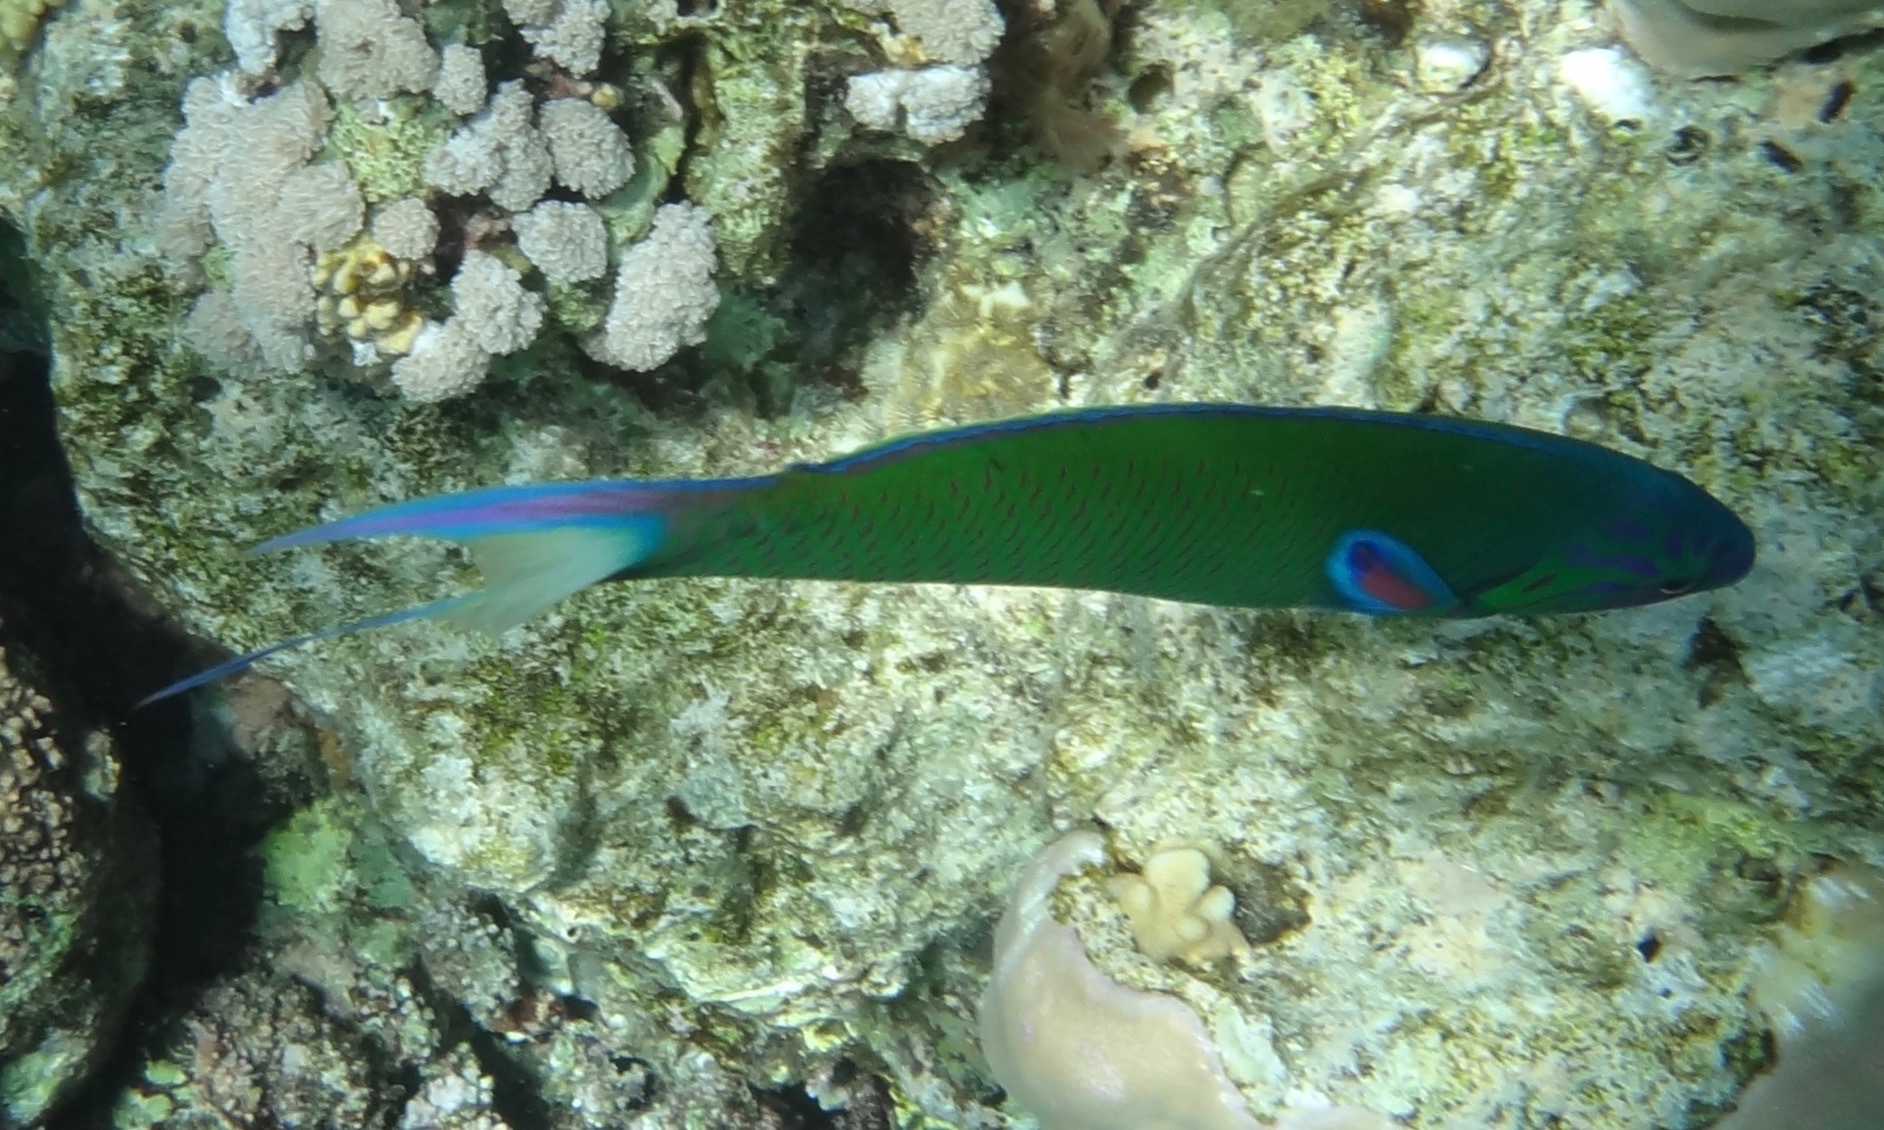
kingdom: Animalia
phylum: Chordata
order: Perciformes
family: Labridae
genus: Thalassoma
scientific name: Thalassoma lunare
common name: Blue wrasse
